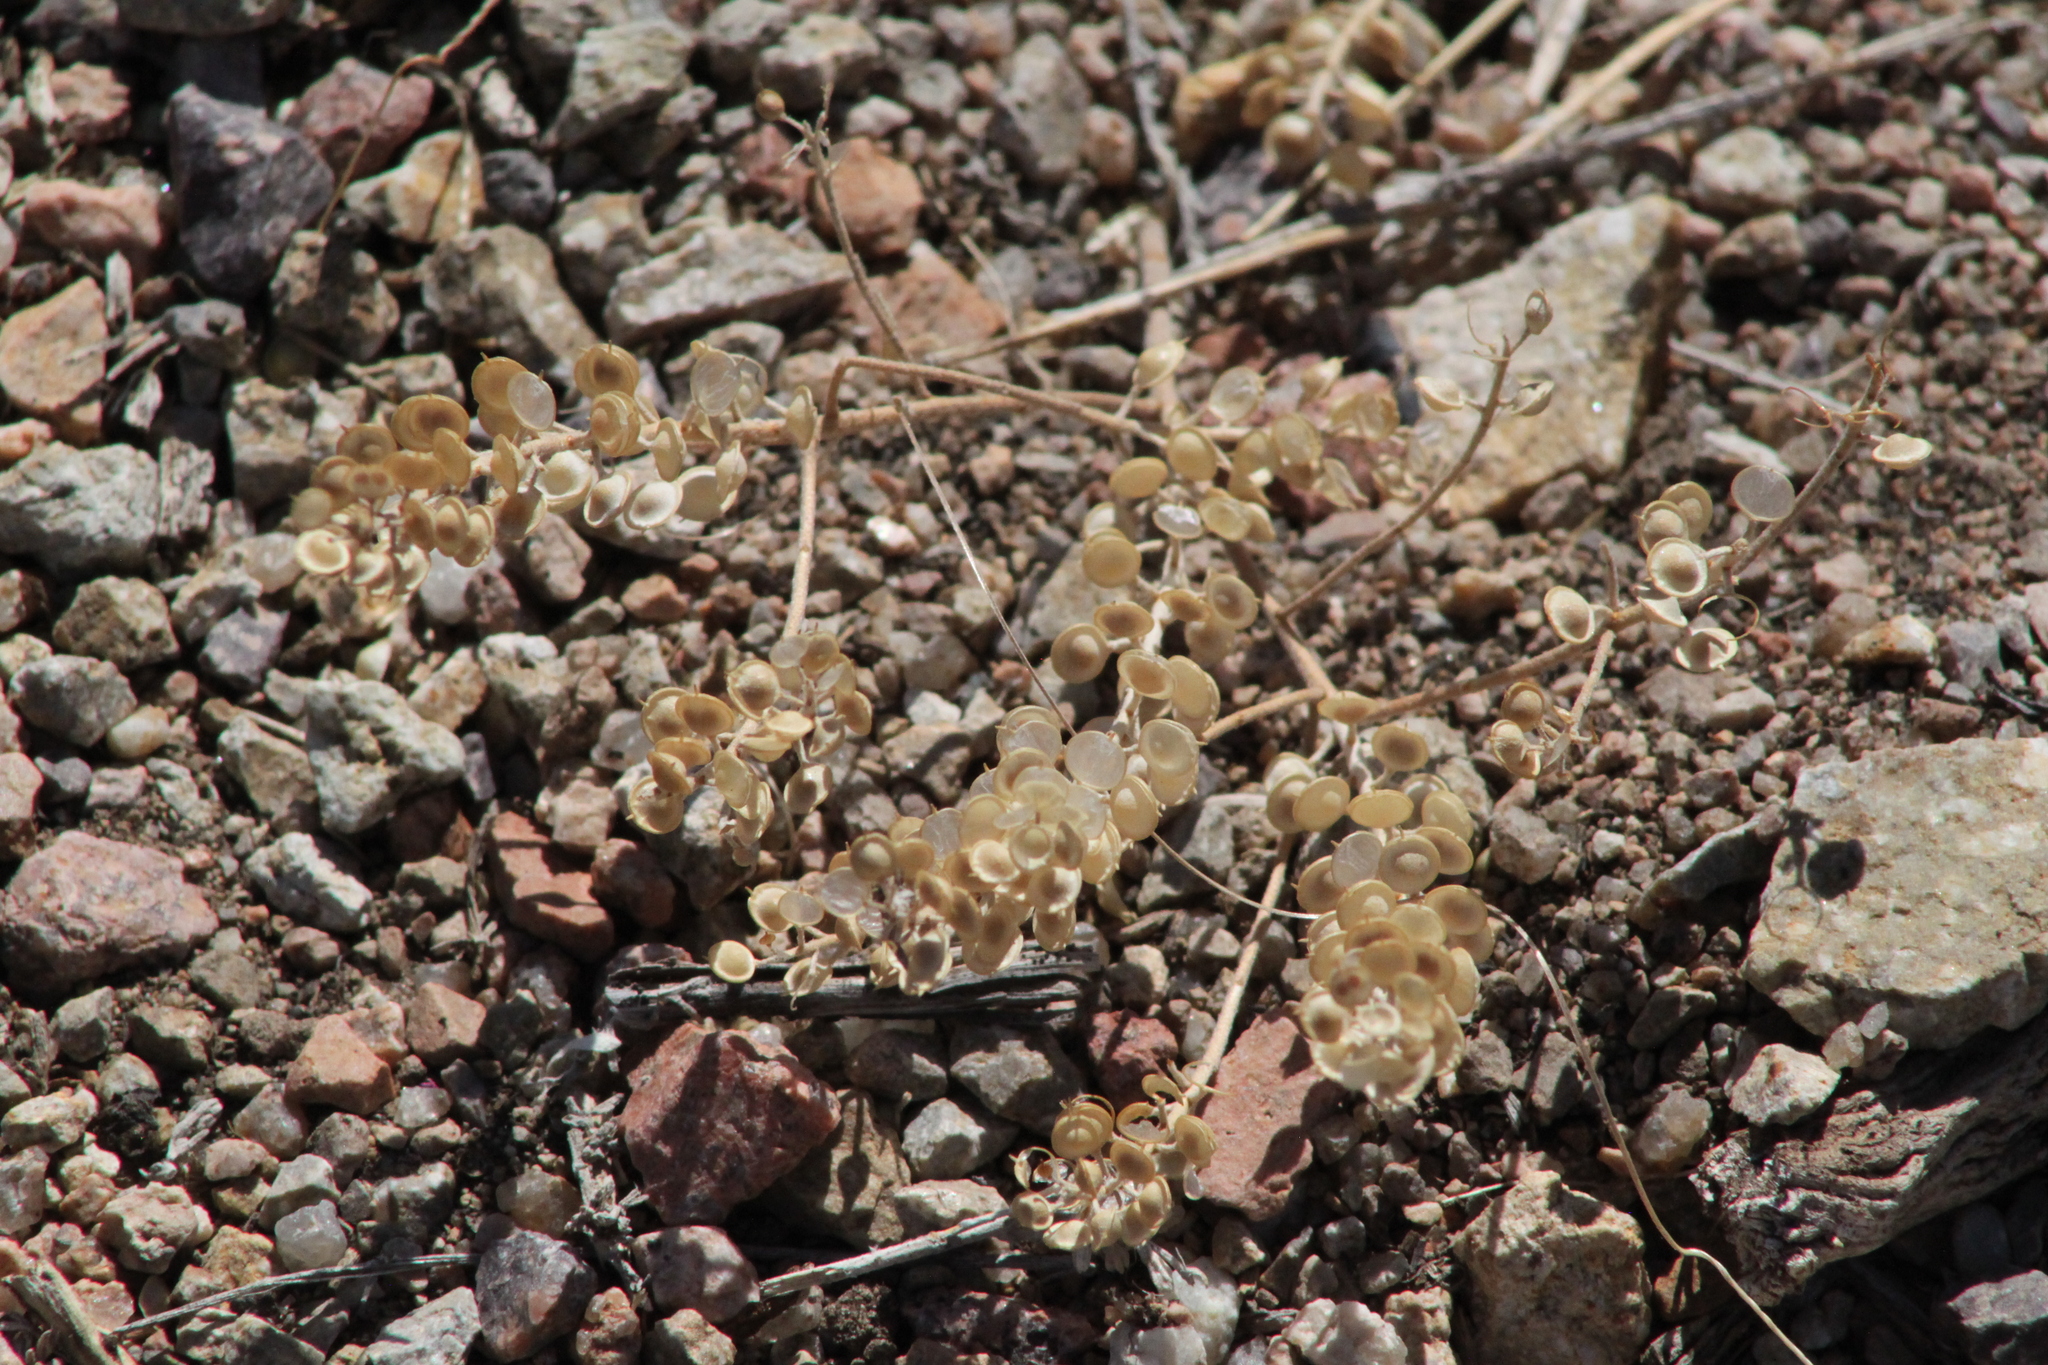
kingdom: Plantae
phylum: Tracheophyta
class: Magnoliopsida
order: Brassicales
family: Brassicaceae
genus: Alyssum
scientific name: Alyssum turkestanicum
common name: Desert alyssum
